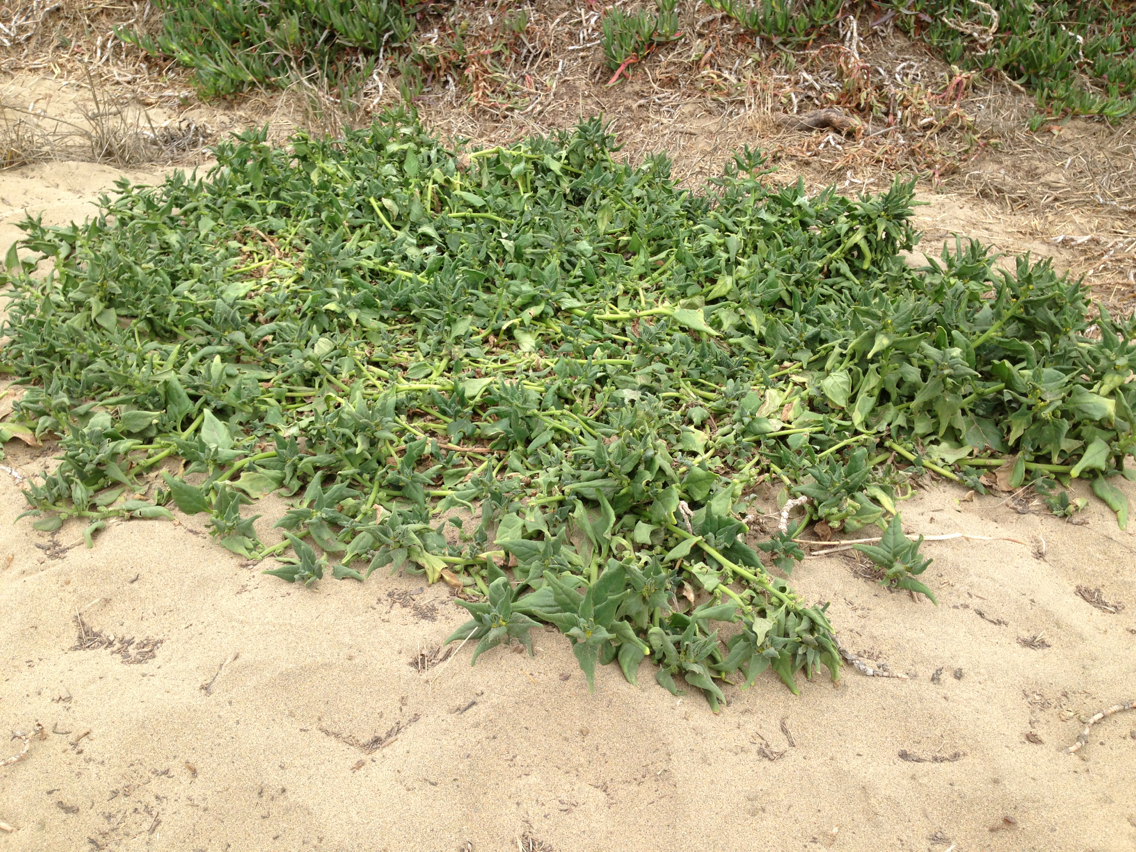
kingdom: Plantae
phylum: Tracheophyta
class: Magnoliopsida
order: Caryophyllales
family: Aizoaceae
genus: Tetragonia
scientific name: Tetragonia tetragonoides
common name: New zealand-spinach
